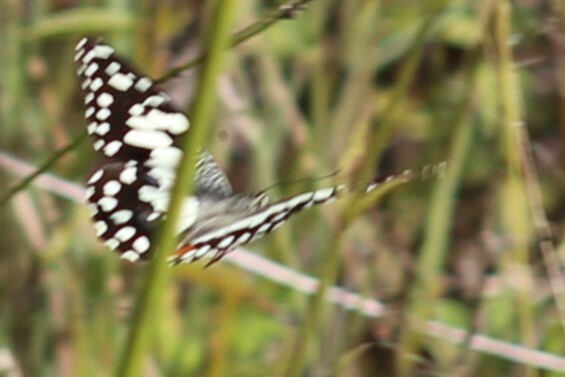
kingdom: Animalia
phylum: Arthropoda
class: Insecta
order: Lepidoptera
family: Papilionidae
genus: Papilio
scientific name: Papilio demoleus
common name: Lime butterfly
